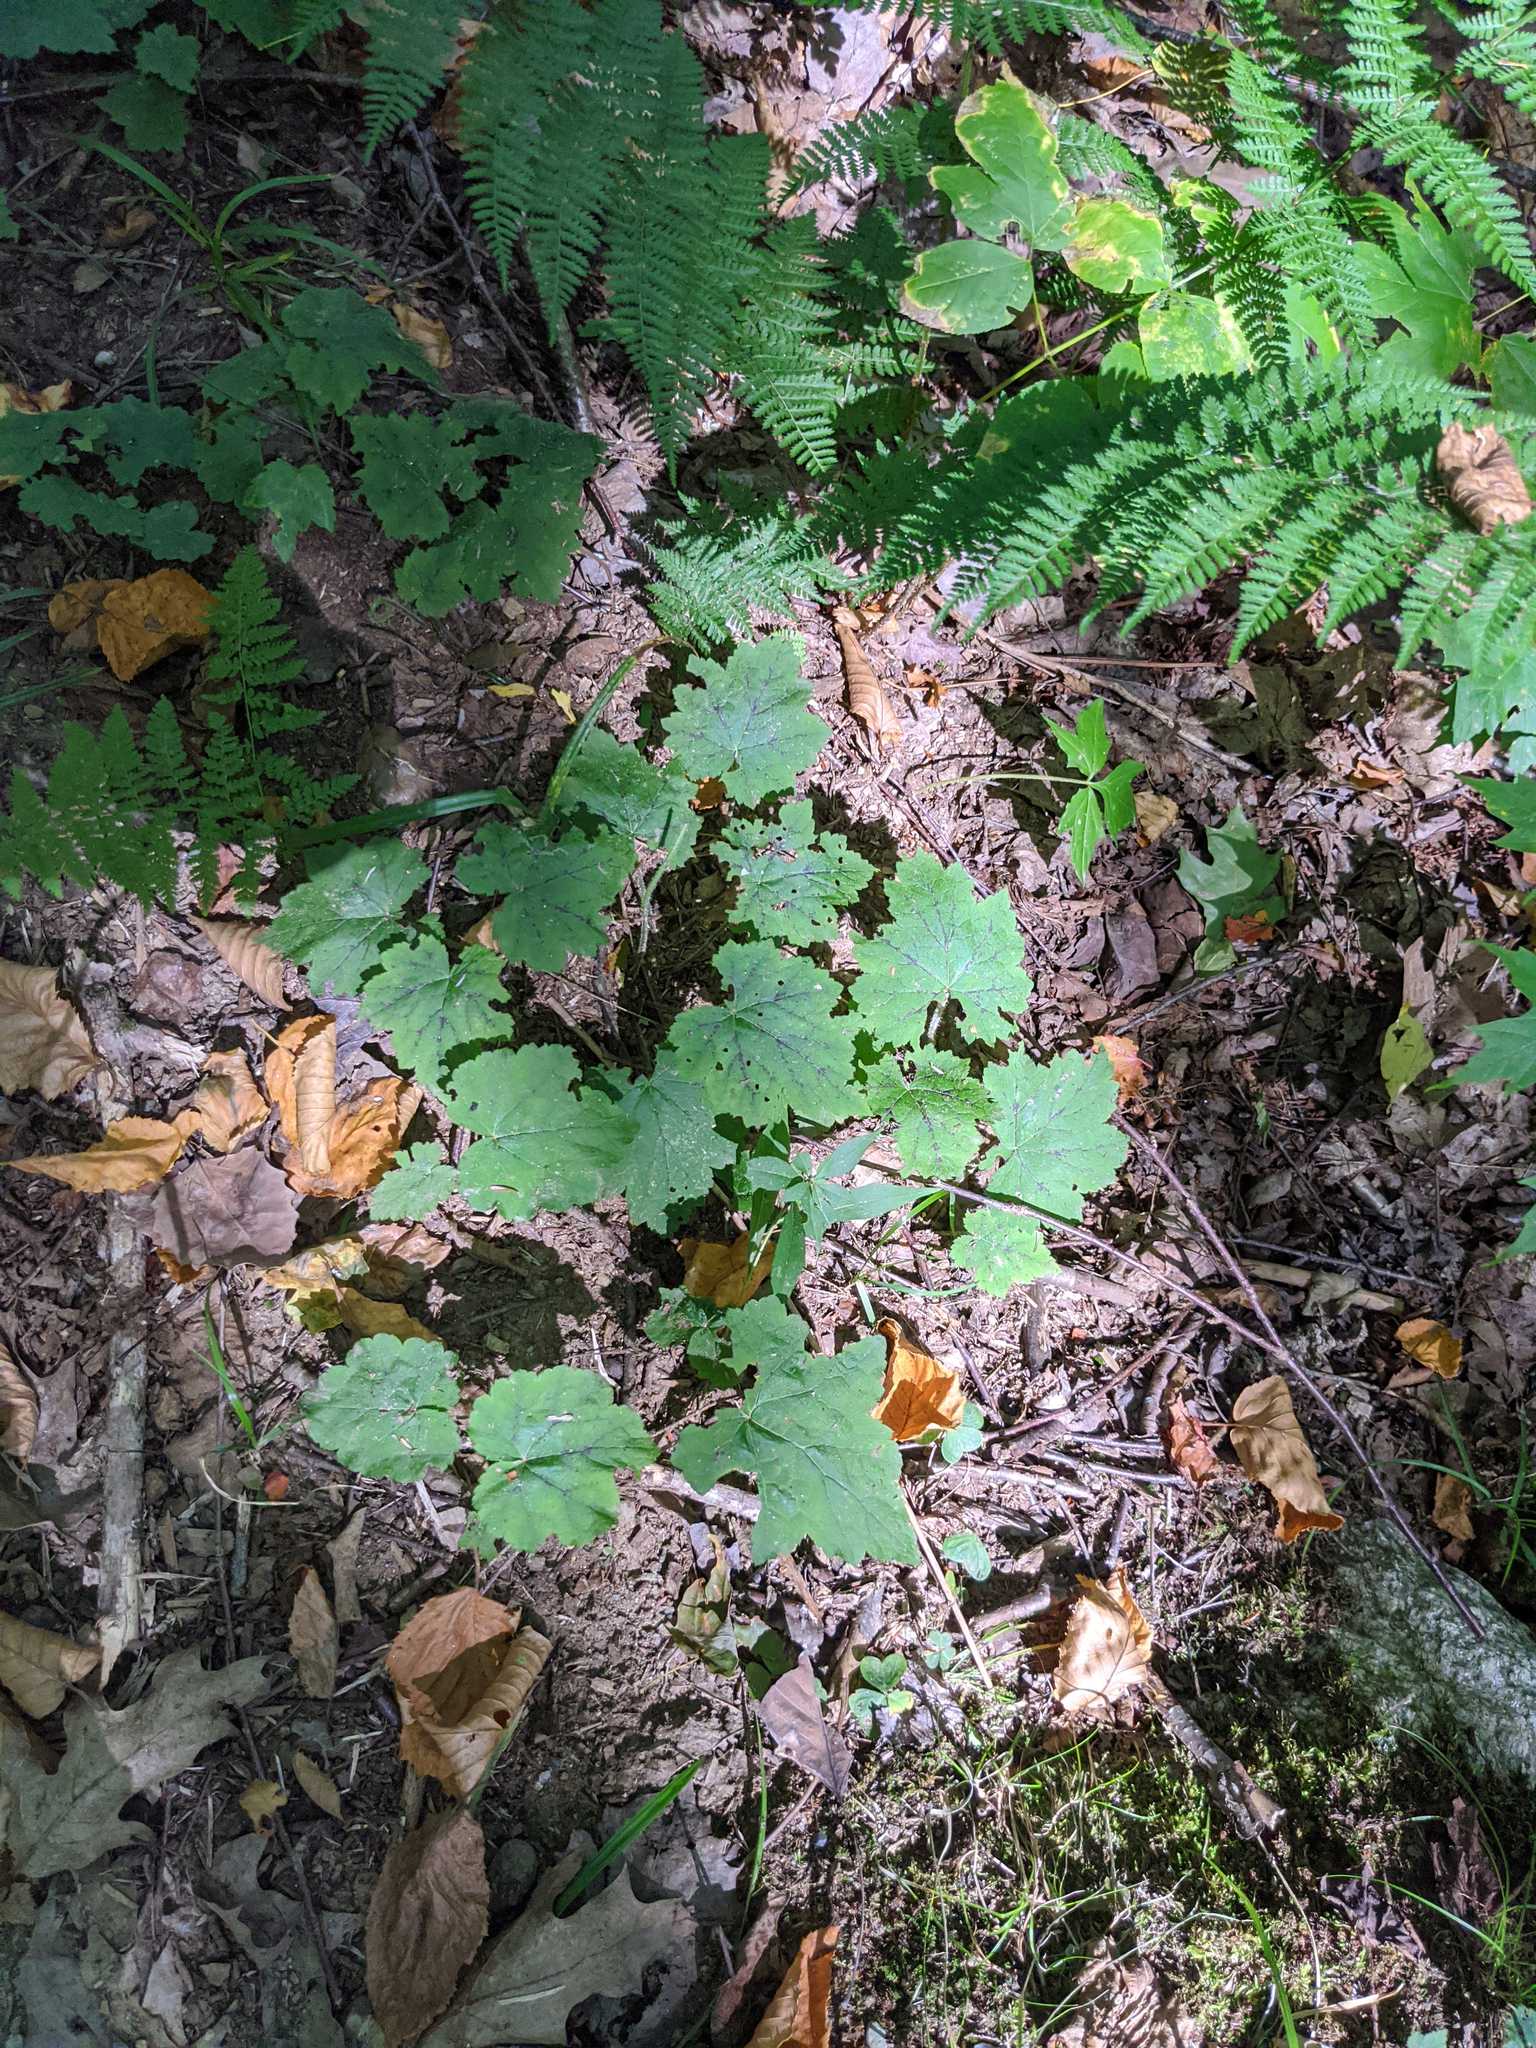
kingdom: Plantae
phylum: Tracheophyta
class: Magnoliopsida
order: Saxifragales
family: Saxifragaceae
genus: Tiarella
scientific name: Tiarella stolonifera
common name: Stoloniferous foamflower
